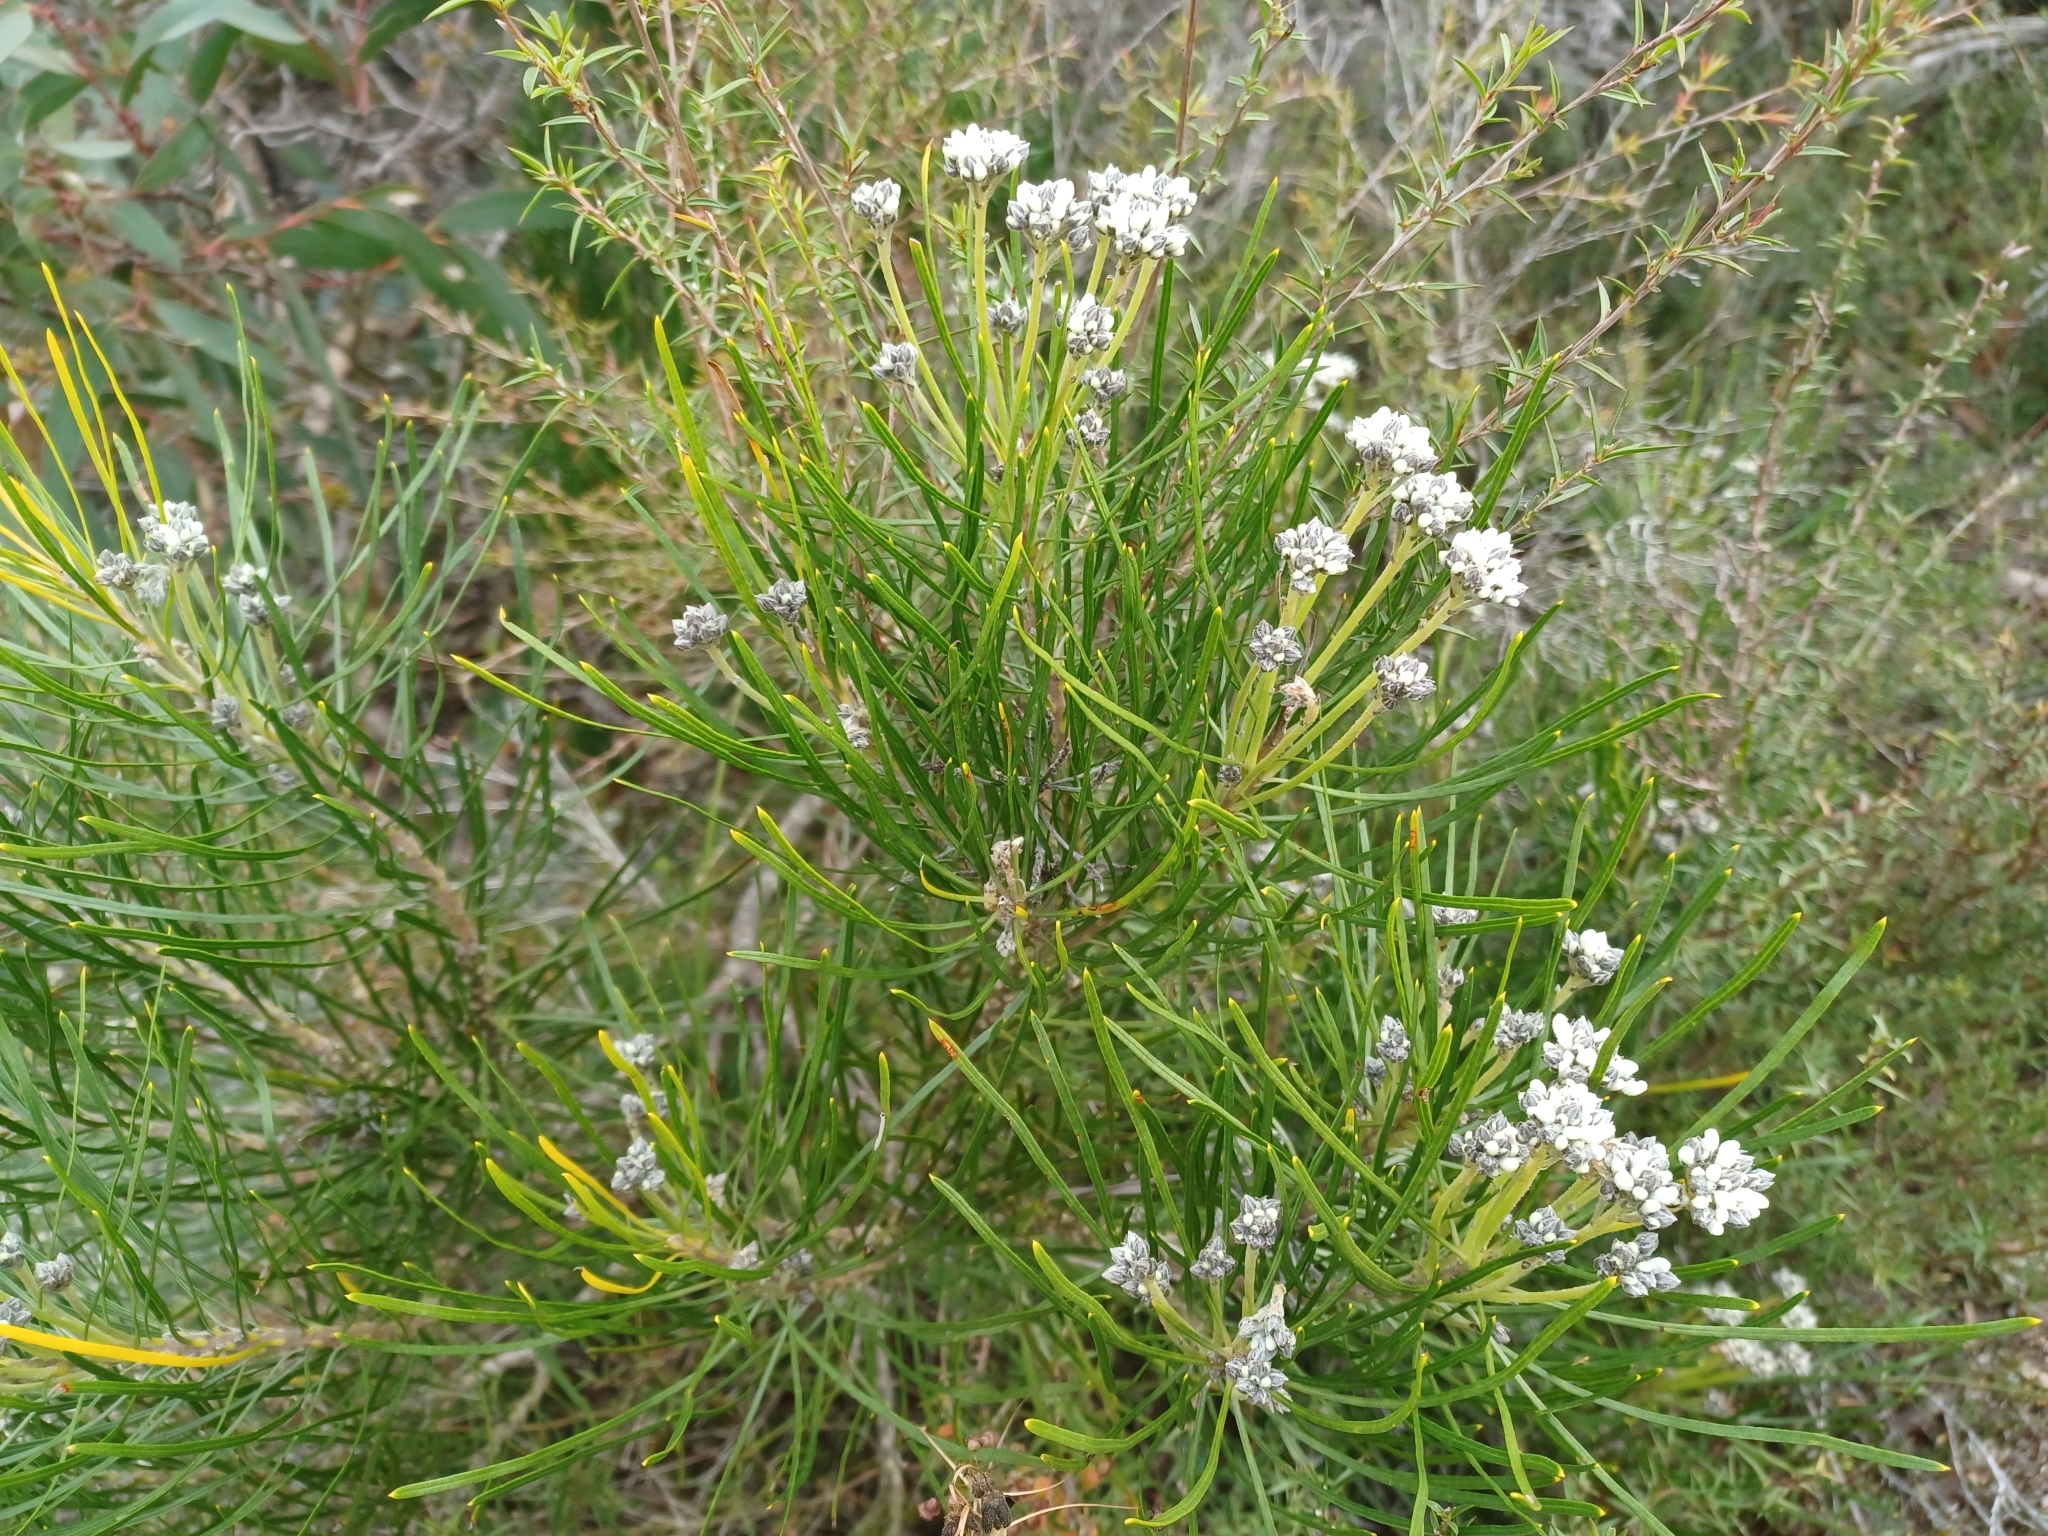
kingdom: Plantae
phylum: Tracheophyta
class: Magnoliopsida
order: Proteales
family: Proteaceae
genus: Conospermum
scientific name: Conospermum mitchellii
